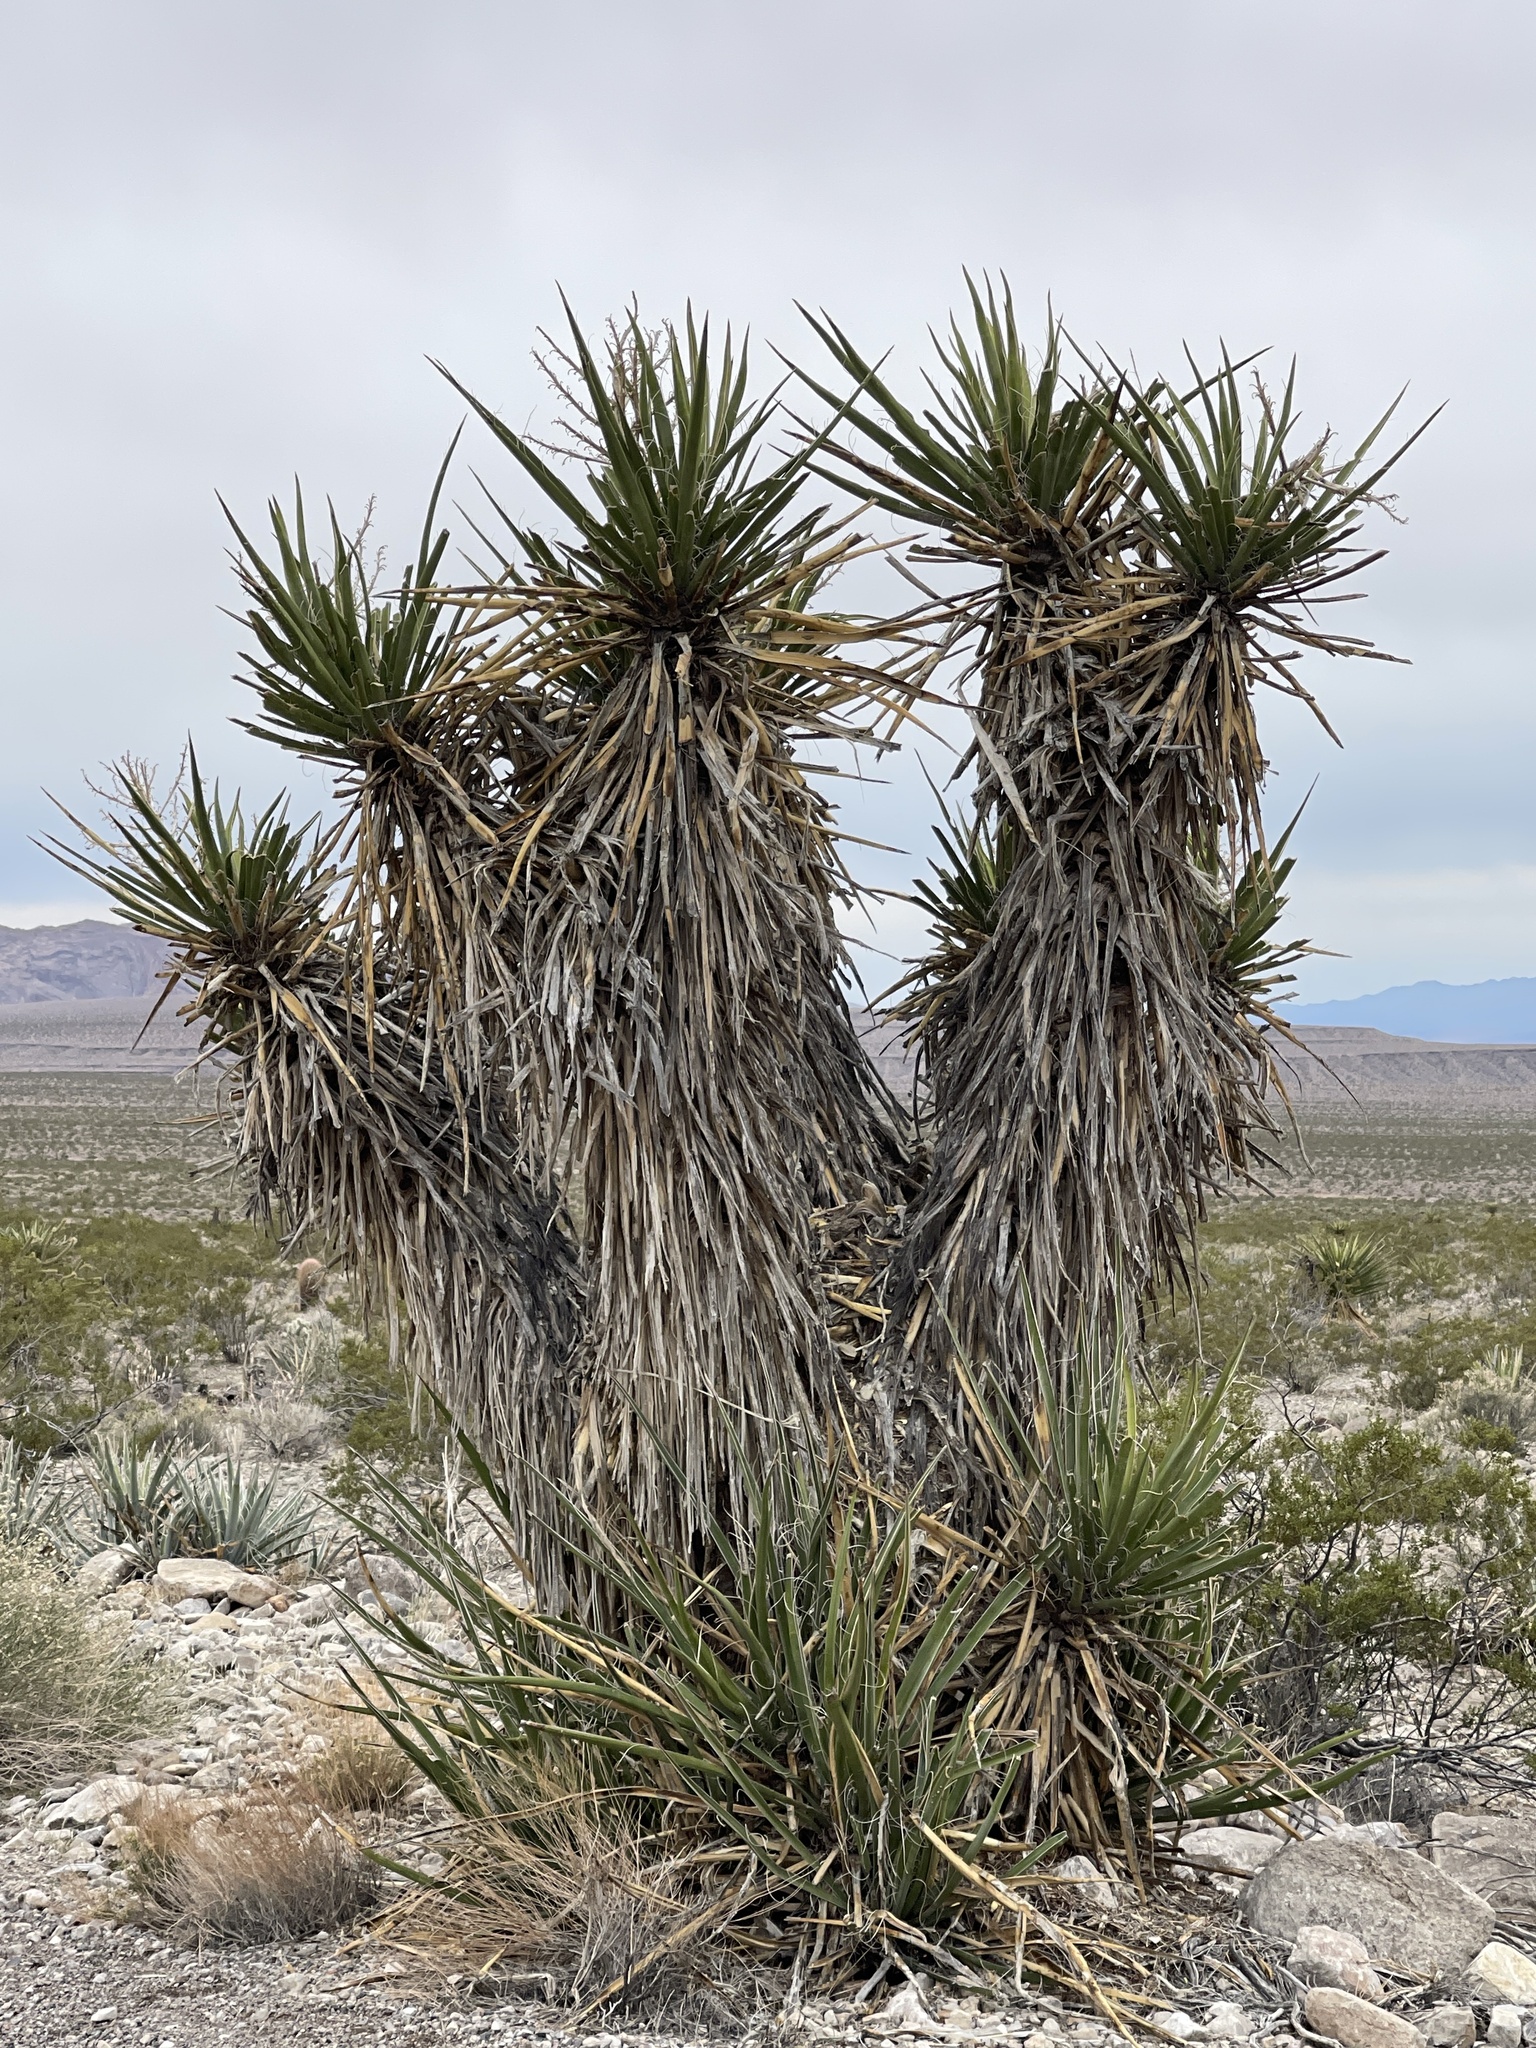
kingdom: Plantae
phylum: Tracheophyta
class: Liliopsida
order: Asparagales
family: Asparagaceae
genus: Yucca
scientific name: Yucca schidigera
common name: Mojave yucca
